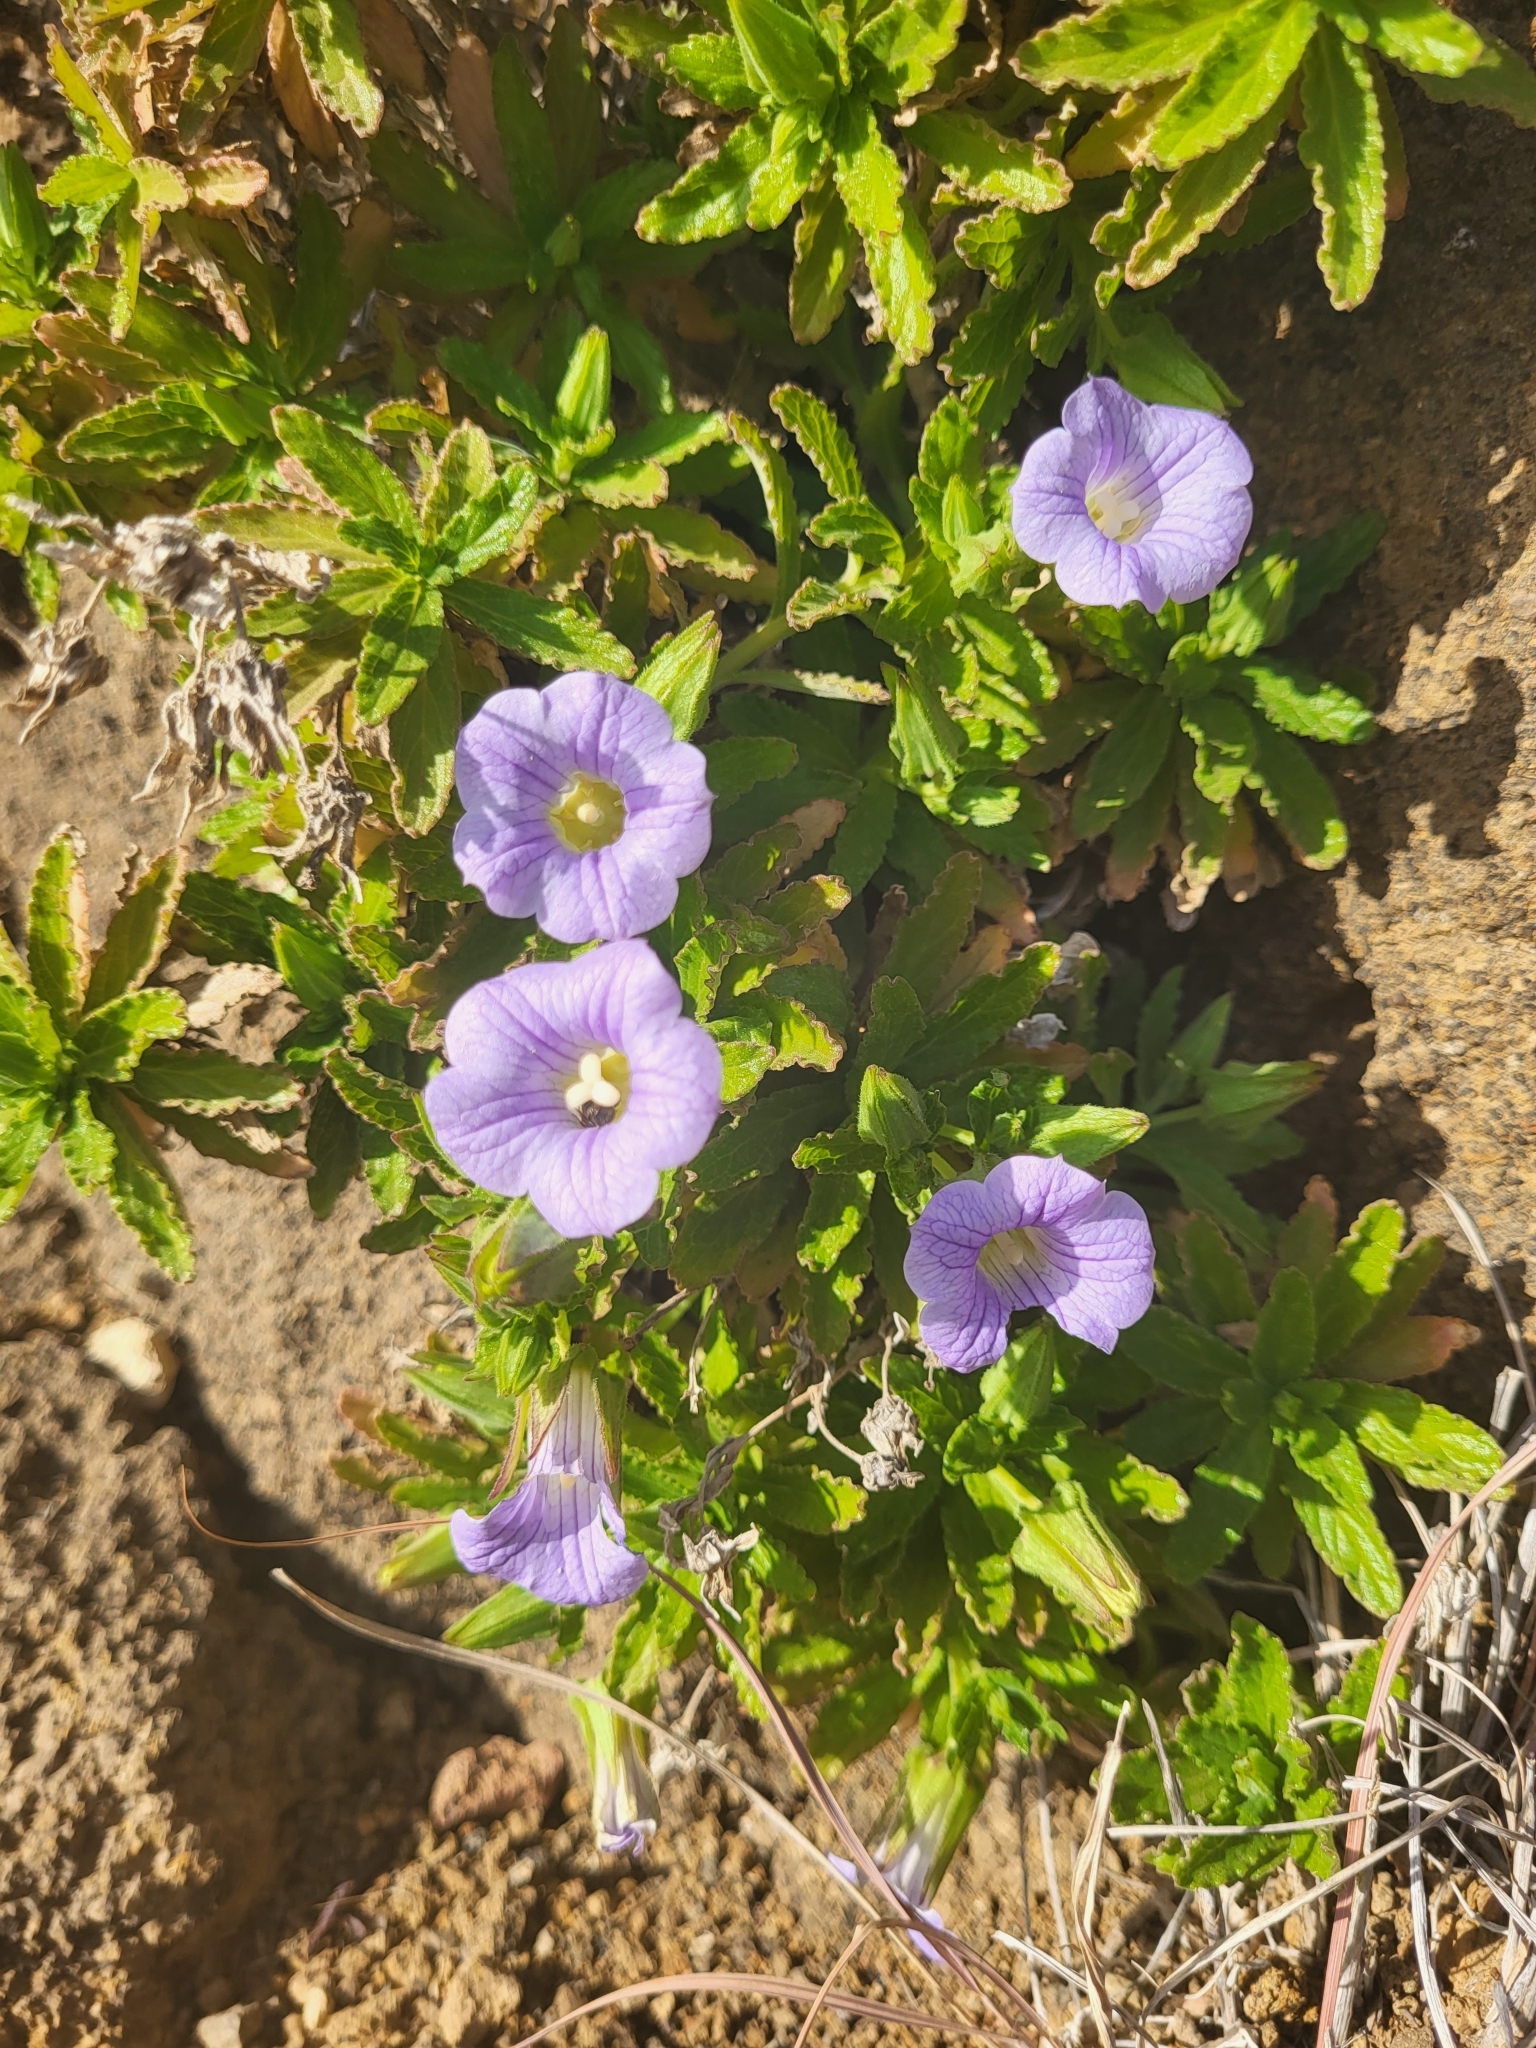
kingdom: Plantae
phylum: Tracheophyta
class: Magnoliopsida
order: Asterales
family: Campanulaceae
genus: Campanula
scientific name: Campanula feijoana
